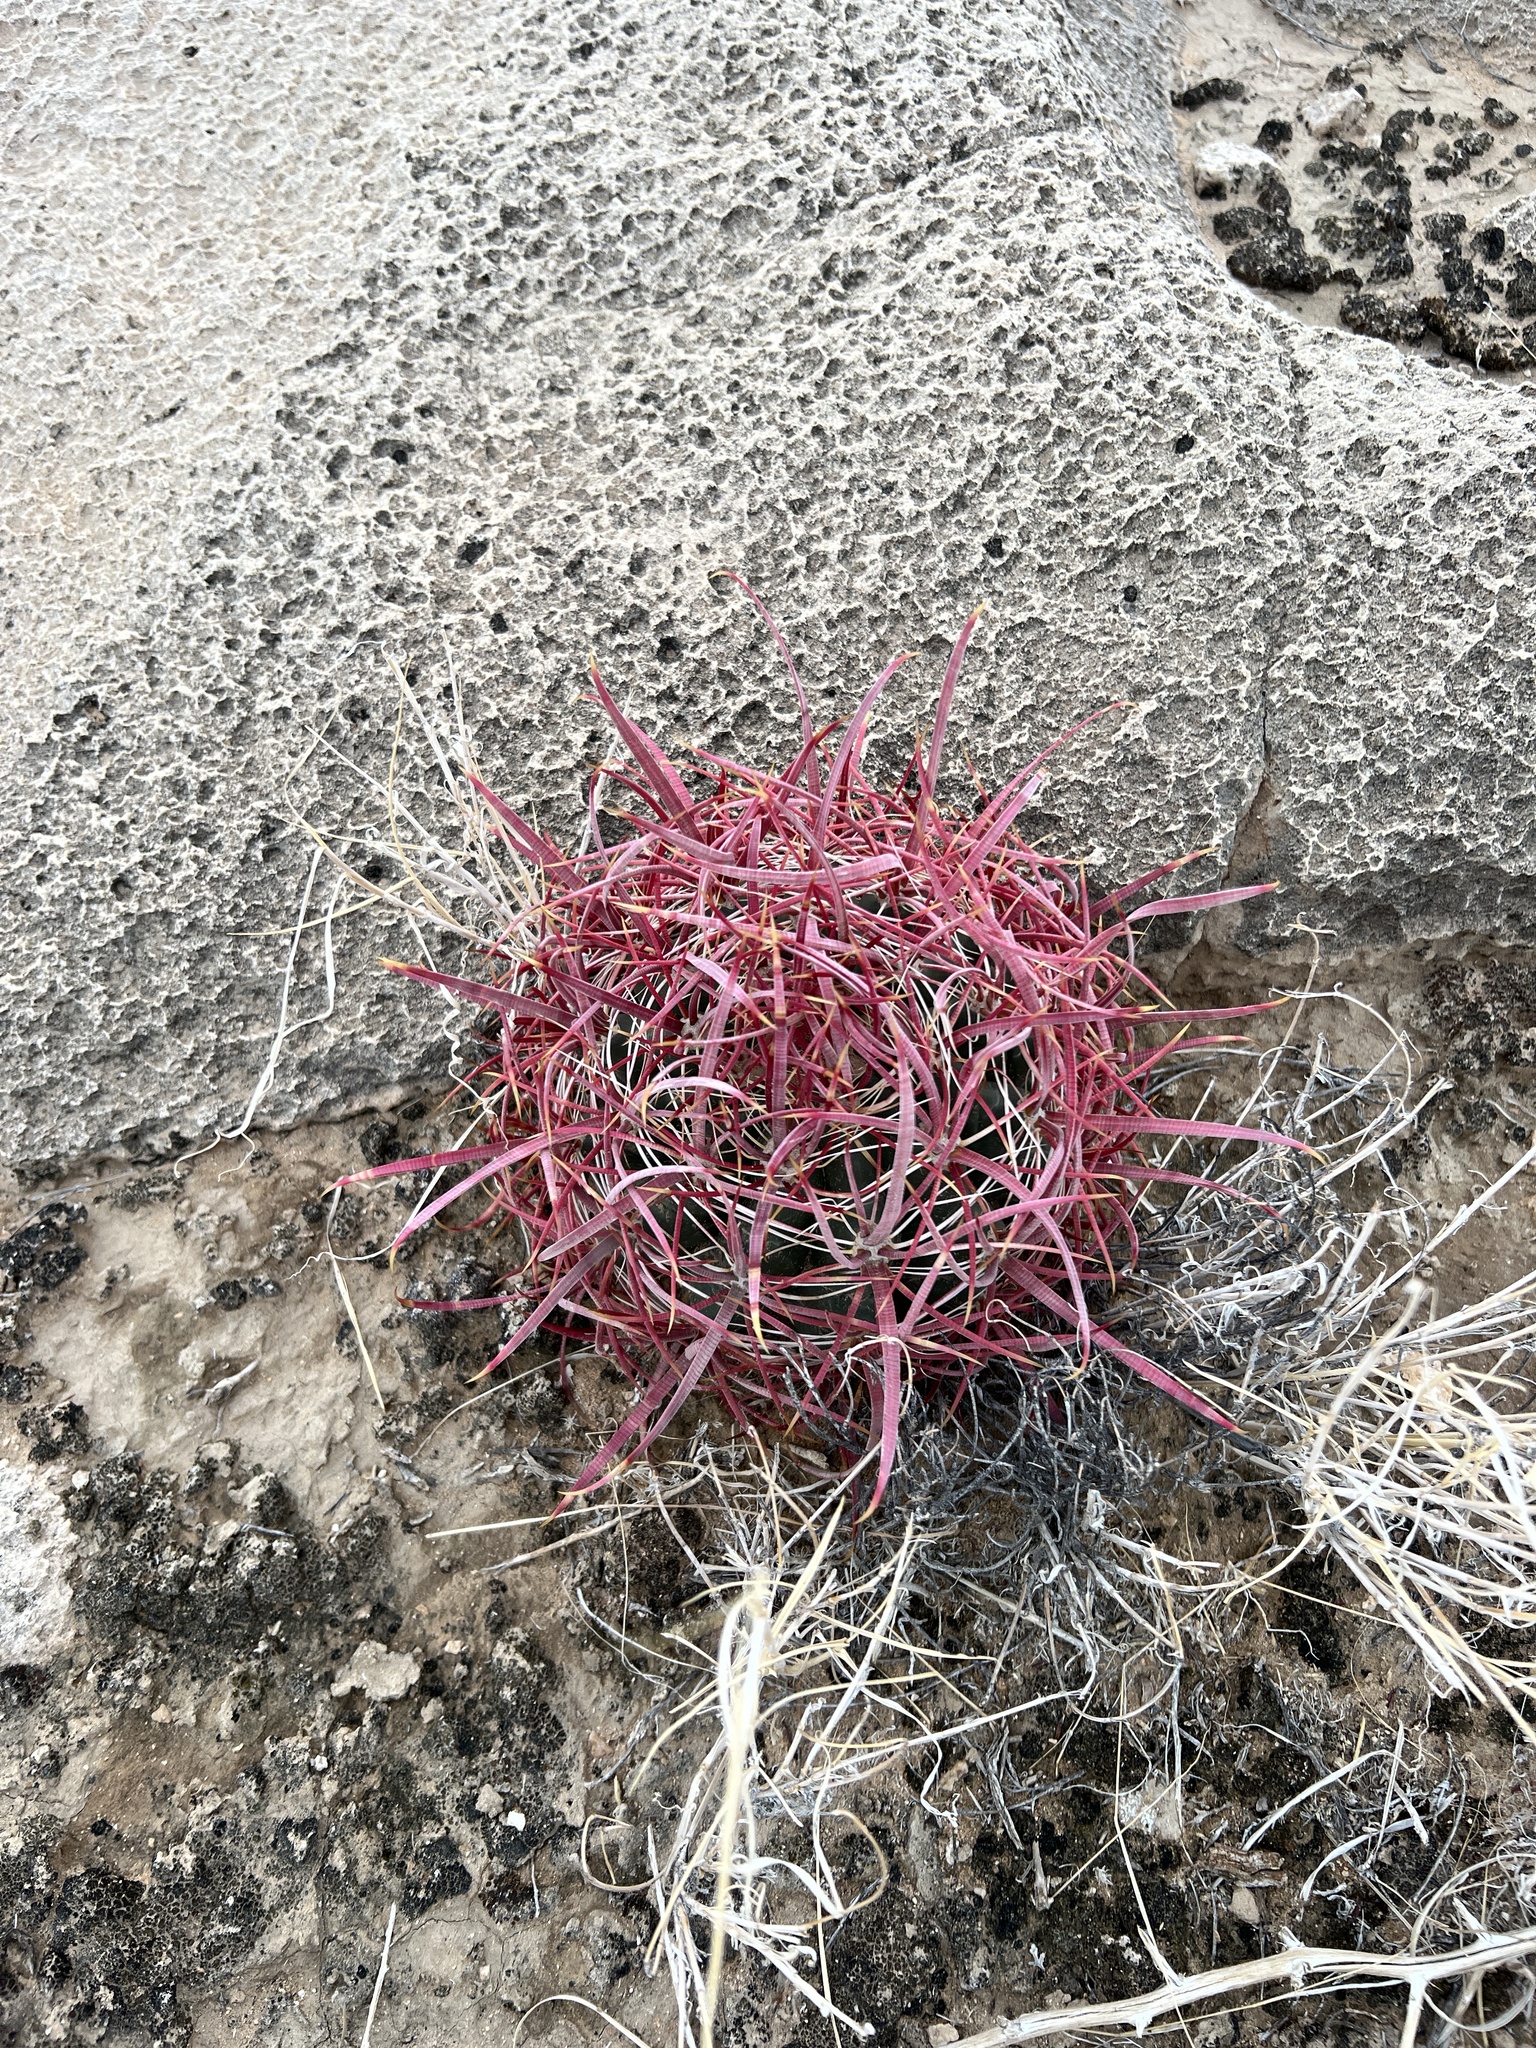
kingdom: Plantae
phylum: Tracheophyta
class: Magnoliopsida
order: Caryophyllales
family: Cactaceae
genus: Ferocactus
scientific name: Ferocactus cylindraceus
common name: California barrel cactus
